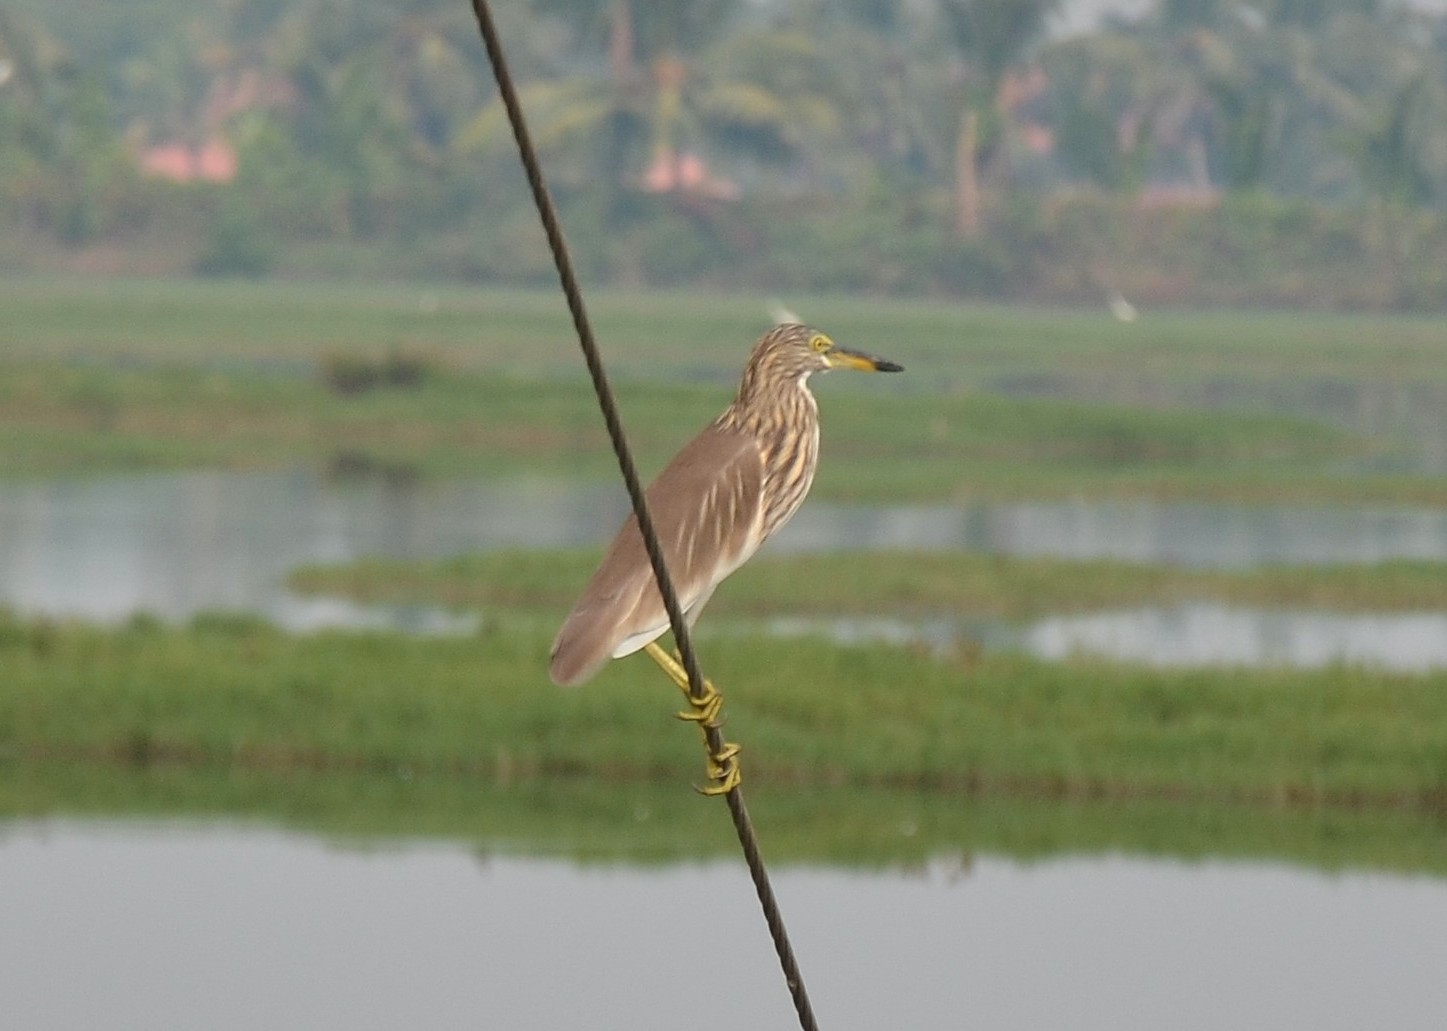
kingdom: Animalia
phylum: Chordata
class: Aves
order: Pelecaniformes
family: Ardeidae
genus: Ardeola
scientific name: Ardeola grayii
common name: Indian pond heron
